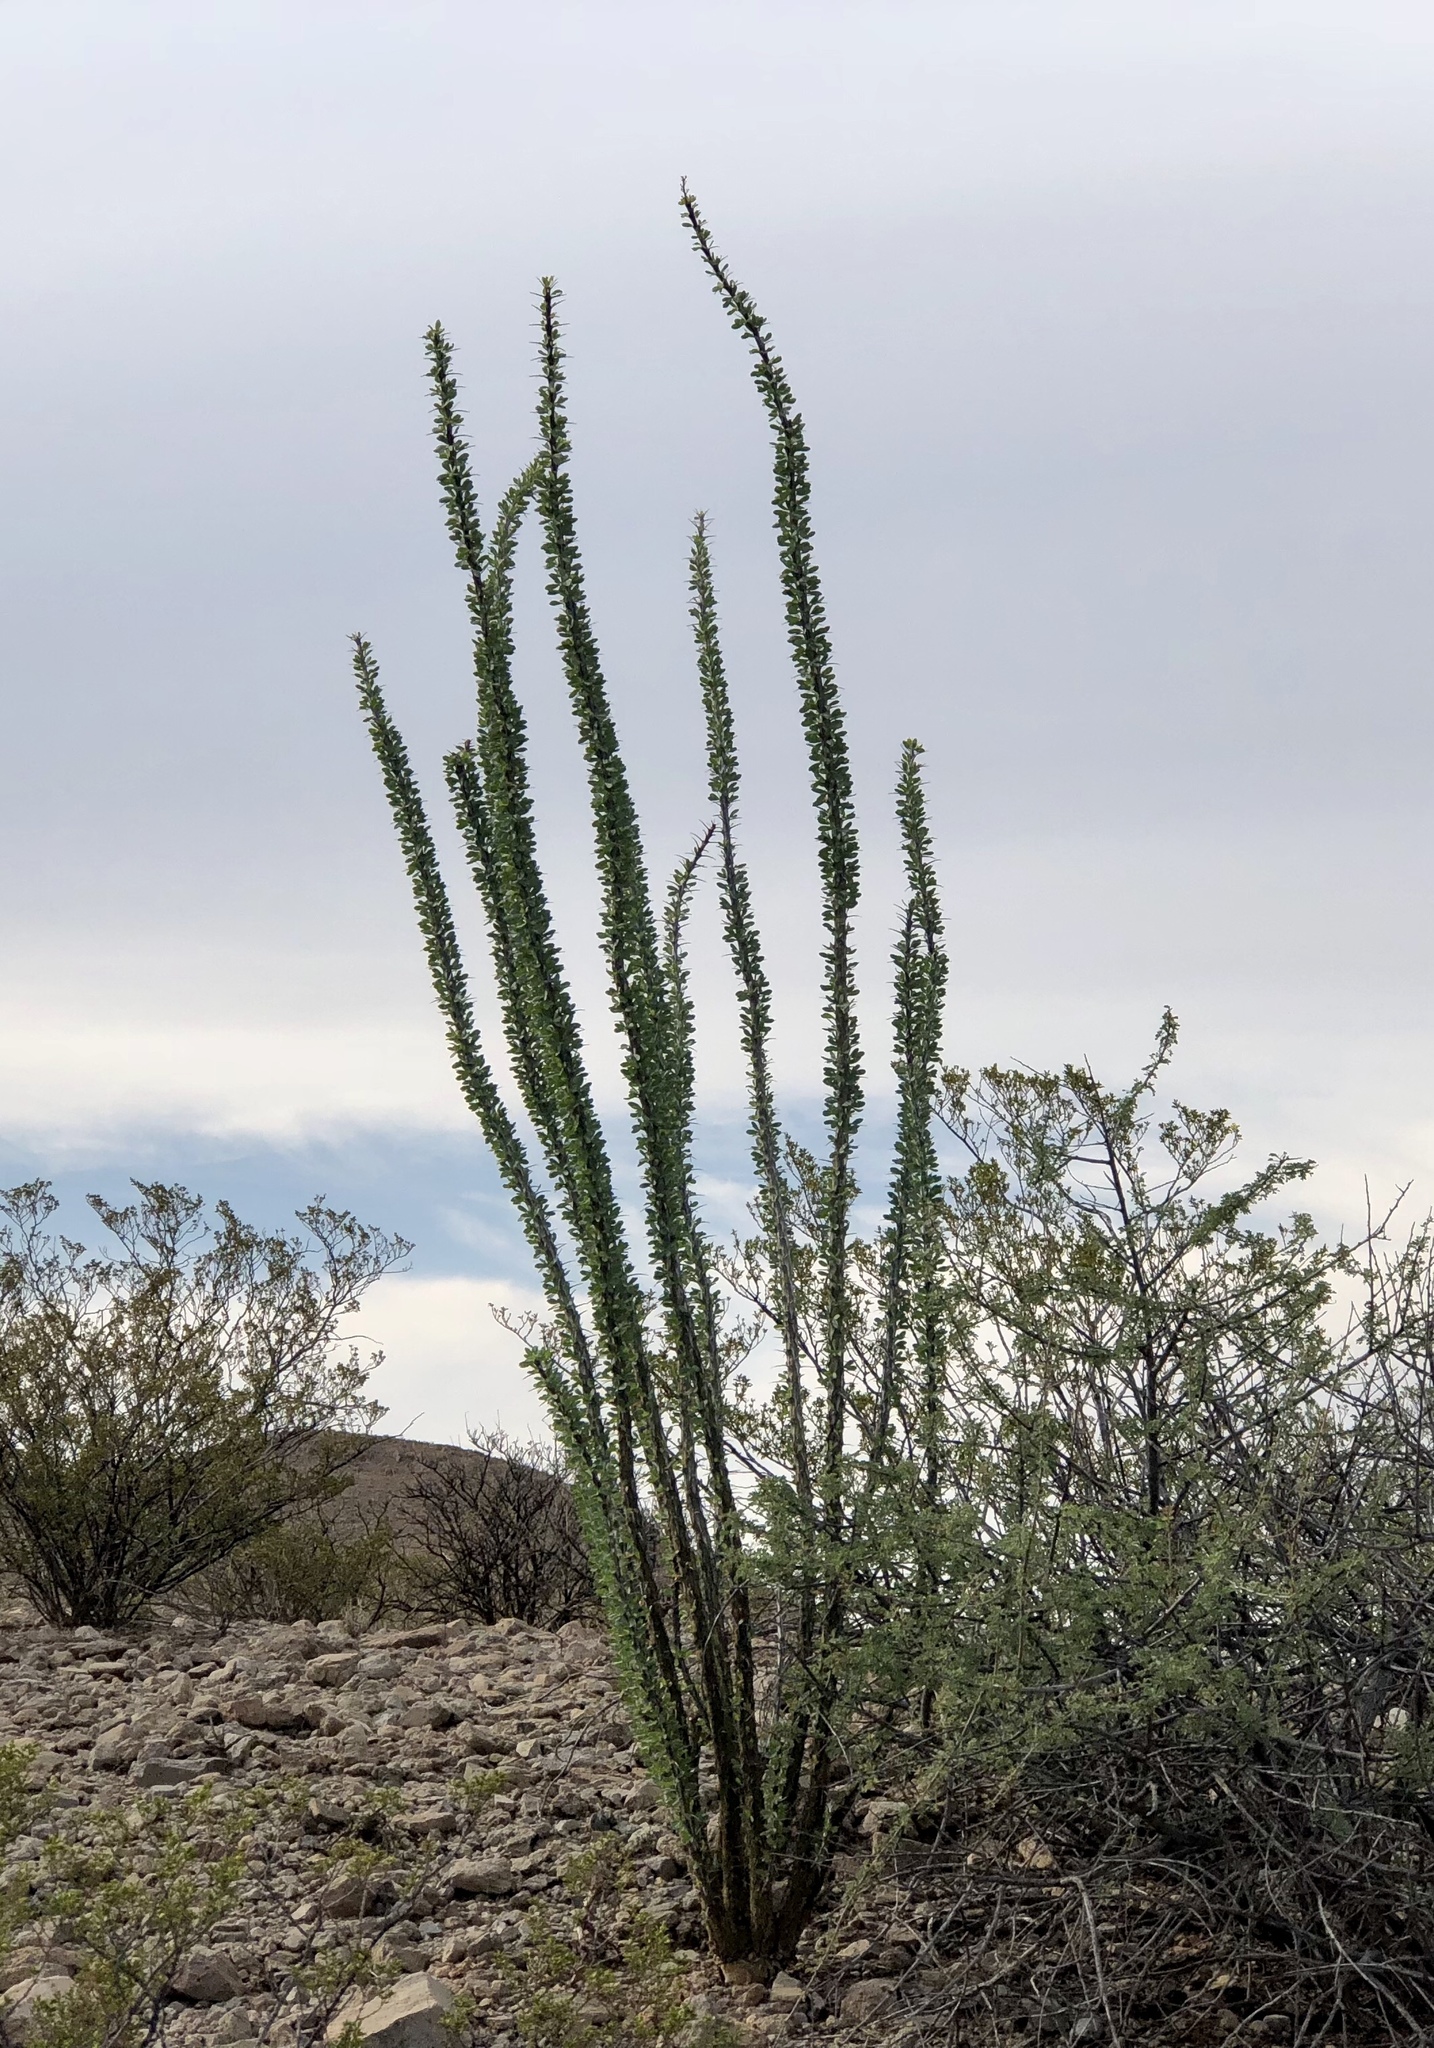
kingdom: Plantae
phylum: Tracheophyta
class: Magnoliopsida
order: Ericales
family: Fouquieriaceae
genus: Fouquieria
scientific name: Fouquieria splendens
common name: Vine-cactus
